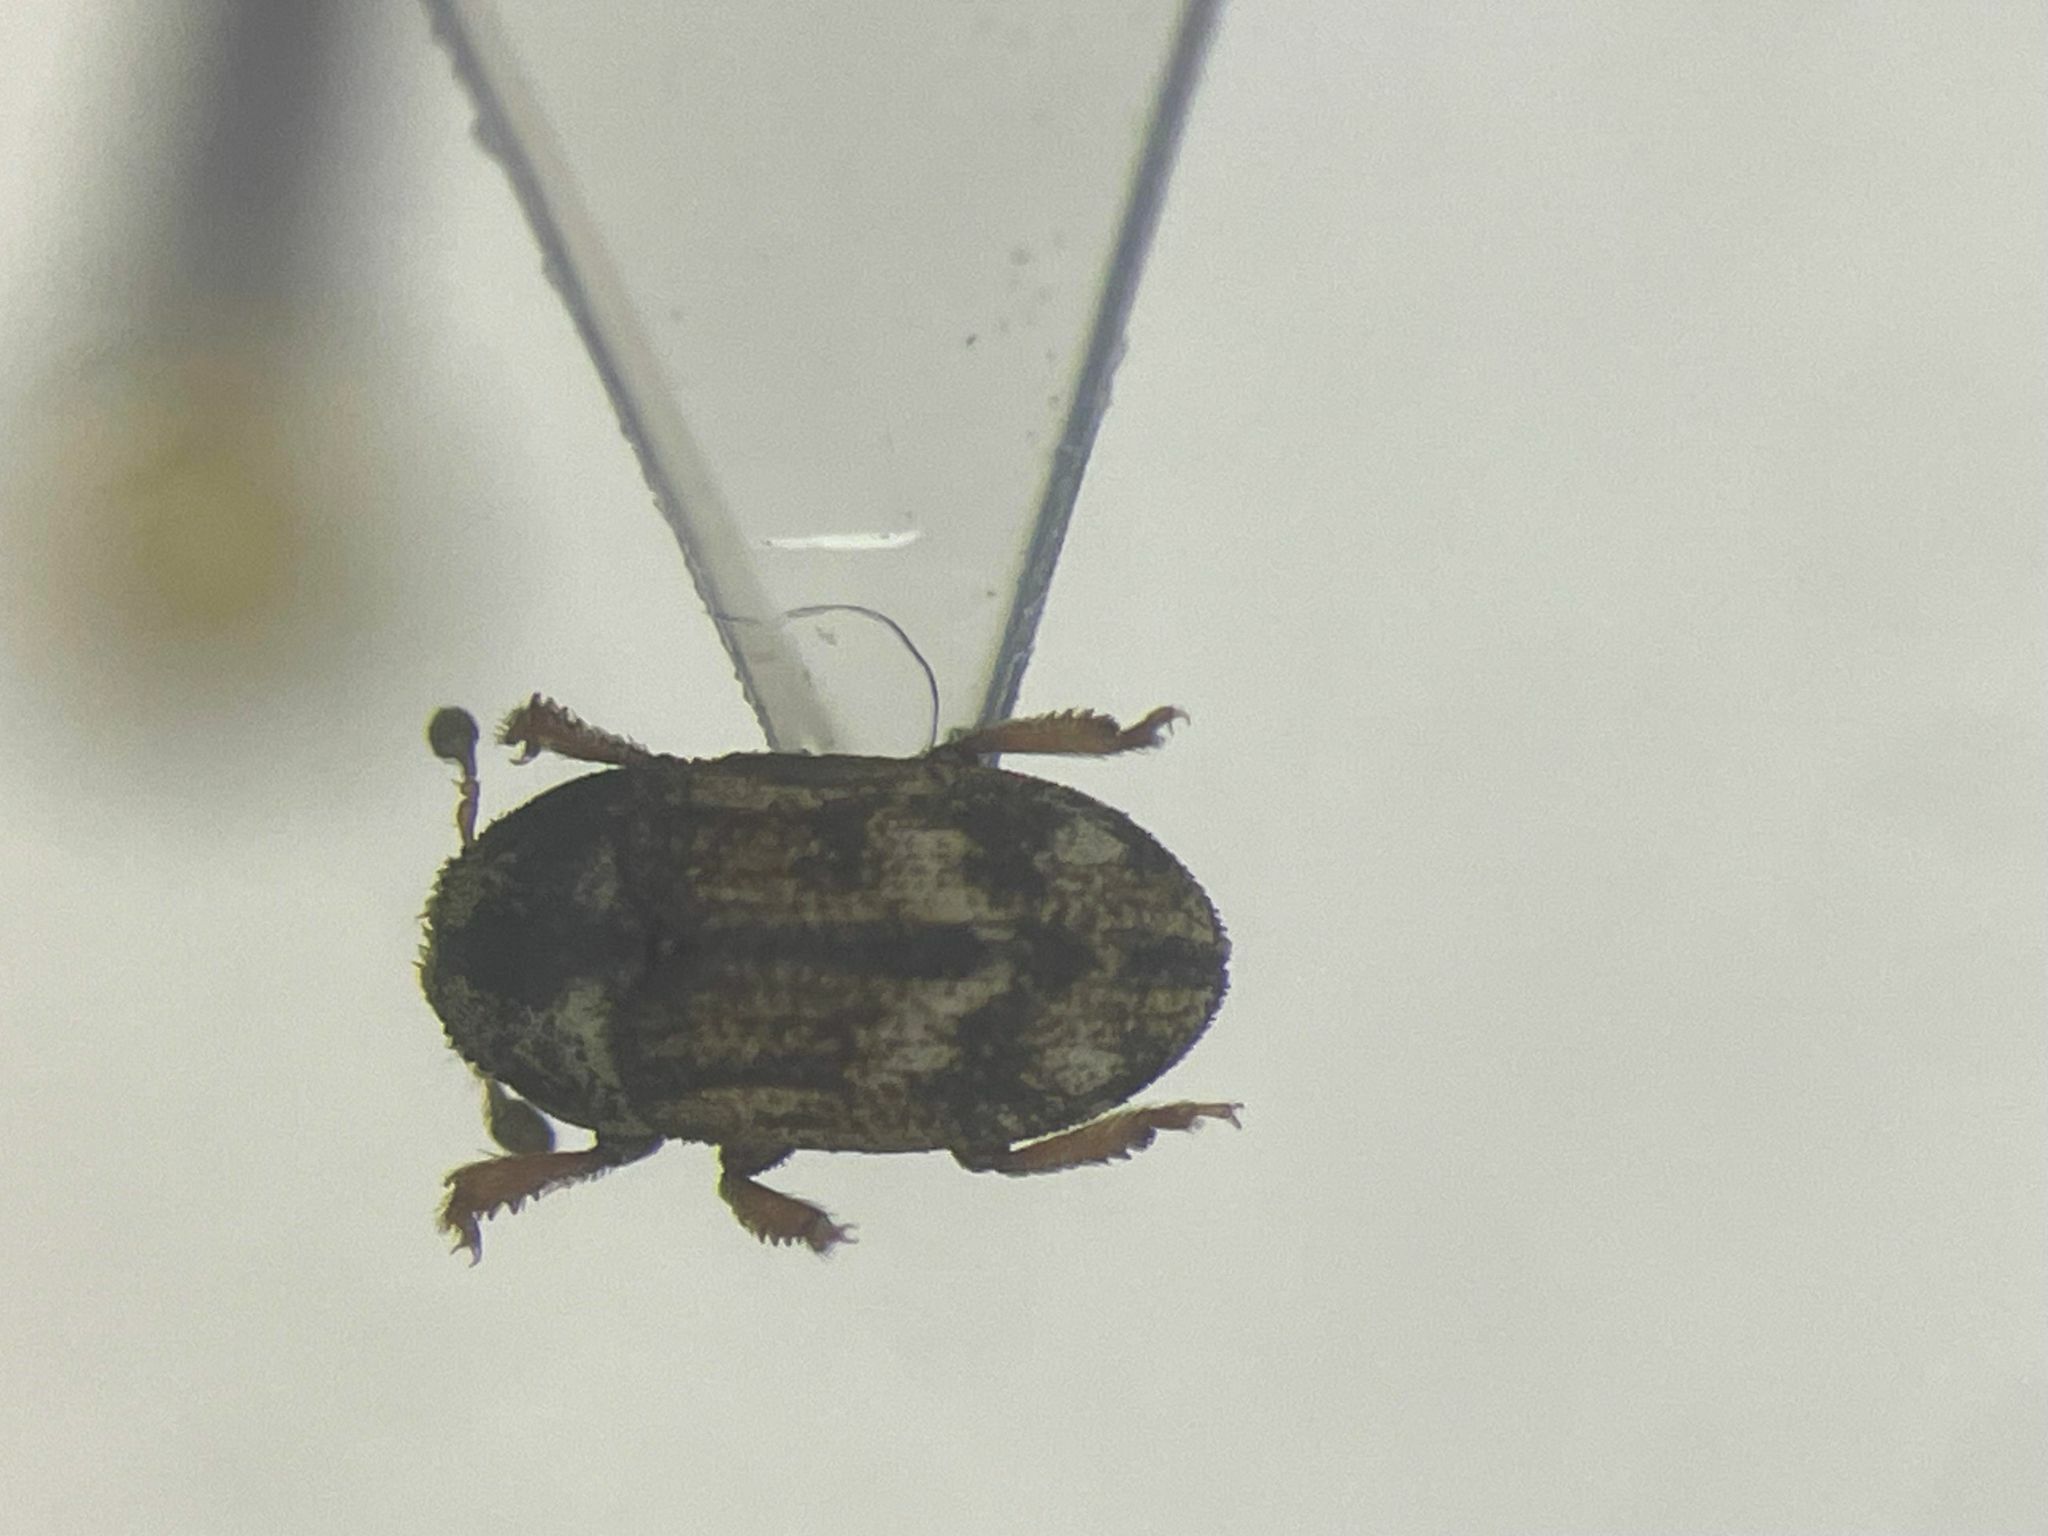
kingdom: Animalia
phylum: Arthropoda
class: Insecta
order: Coleoptera
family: Curculionidae
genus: Hylesinus
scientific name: Hylesinus criddlei
